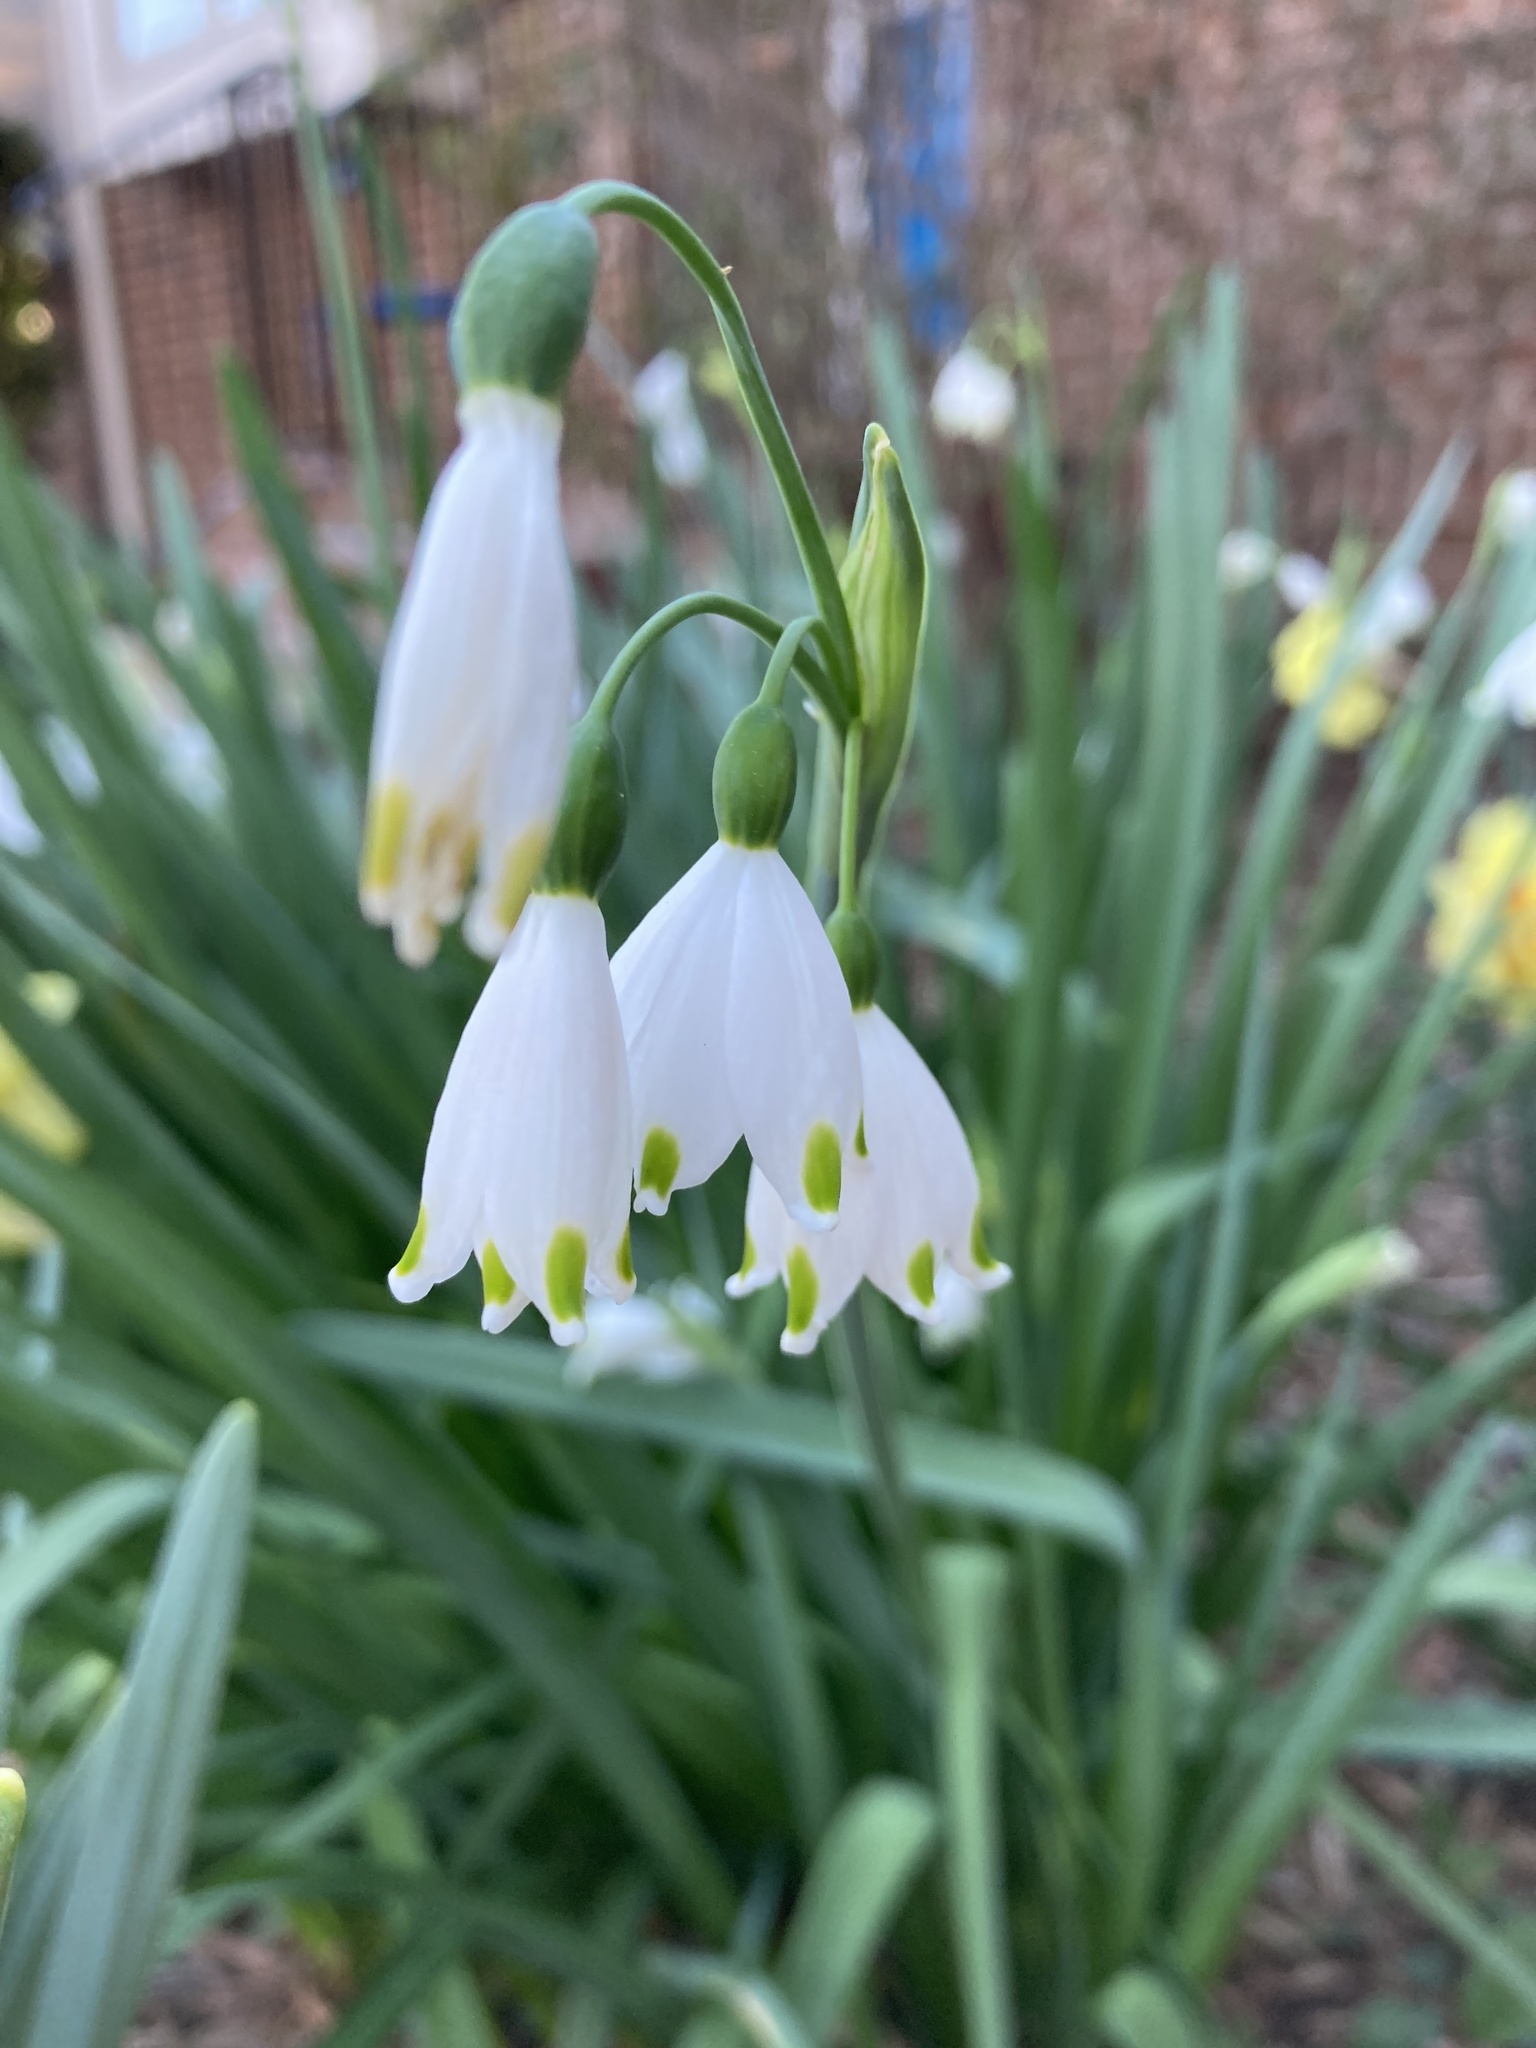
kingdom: Plantae
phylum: Tracheophyta
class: Liliopsida
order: Asparagales
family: Amaryllidaceae
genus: Leucojum
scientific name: Leucojum aestivum
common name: Summer snowflake
